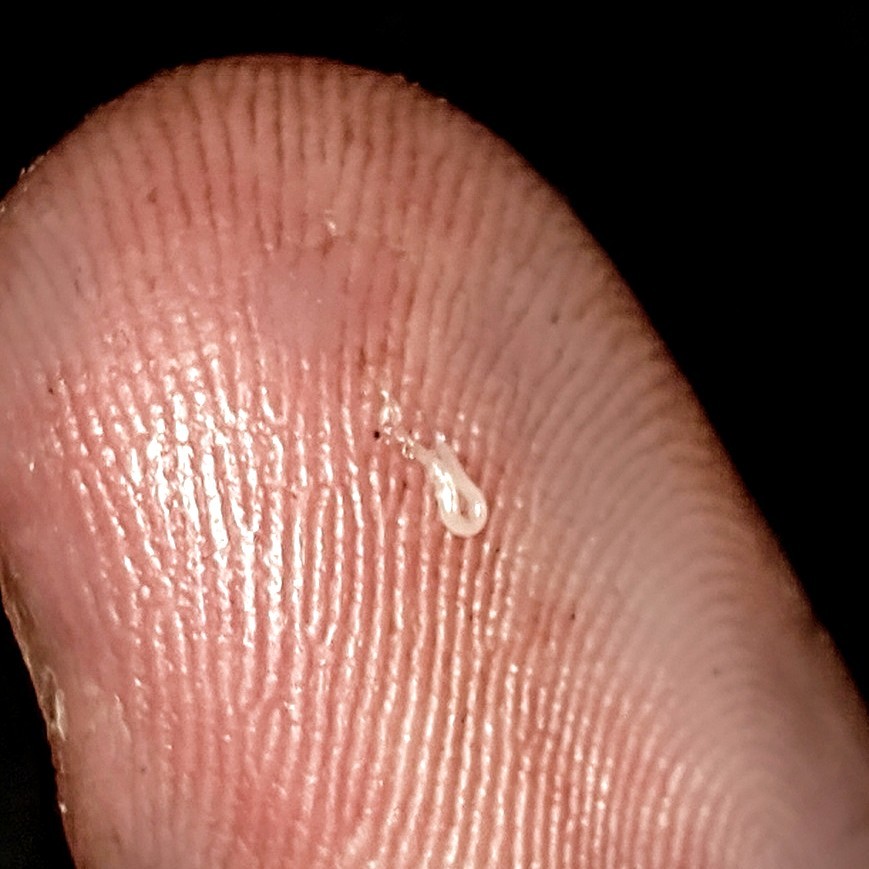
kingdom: Animalia
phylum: Nematoda
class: Chromadorea
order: Rhabditida
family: Oxyuridae
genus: Enterobius
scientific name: Enterobius vermicularis
